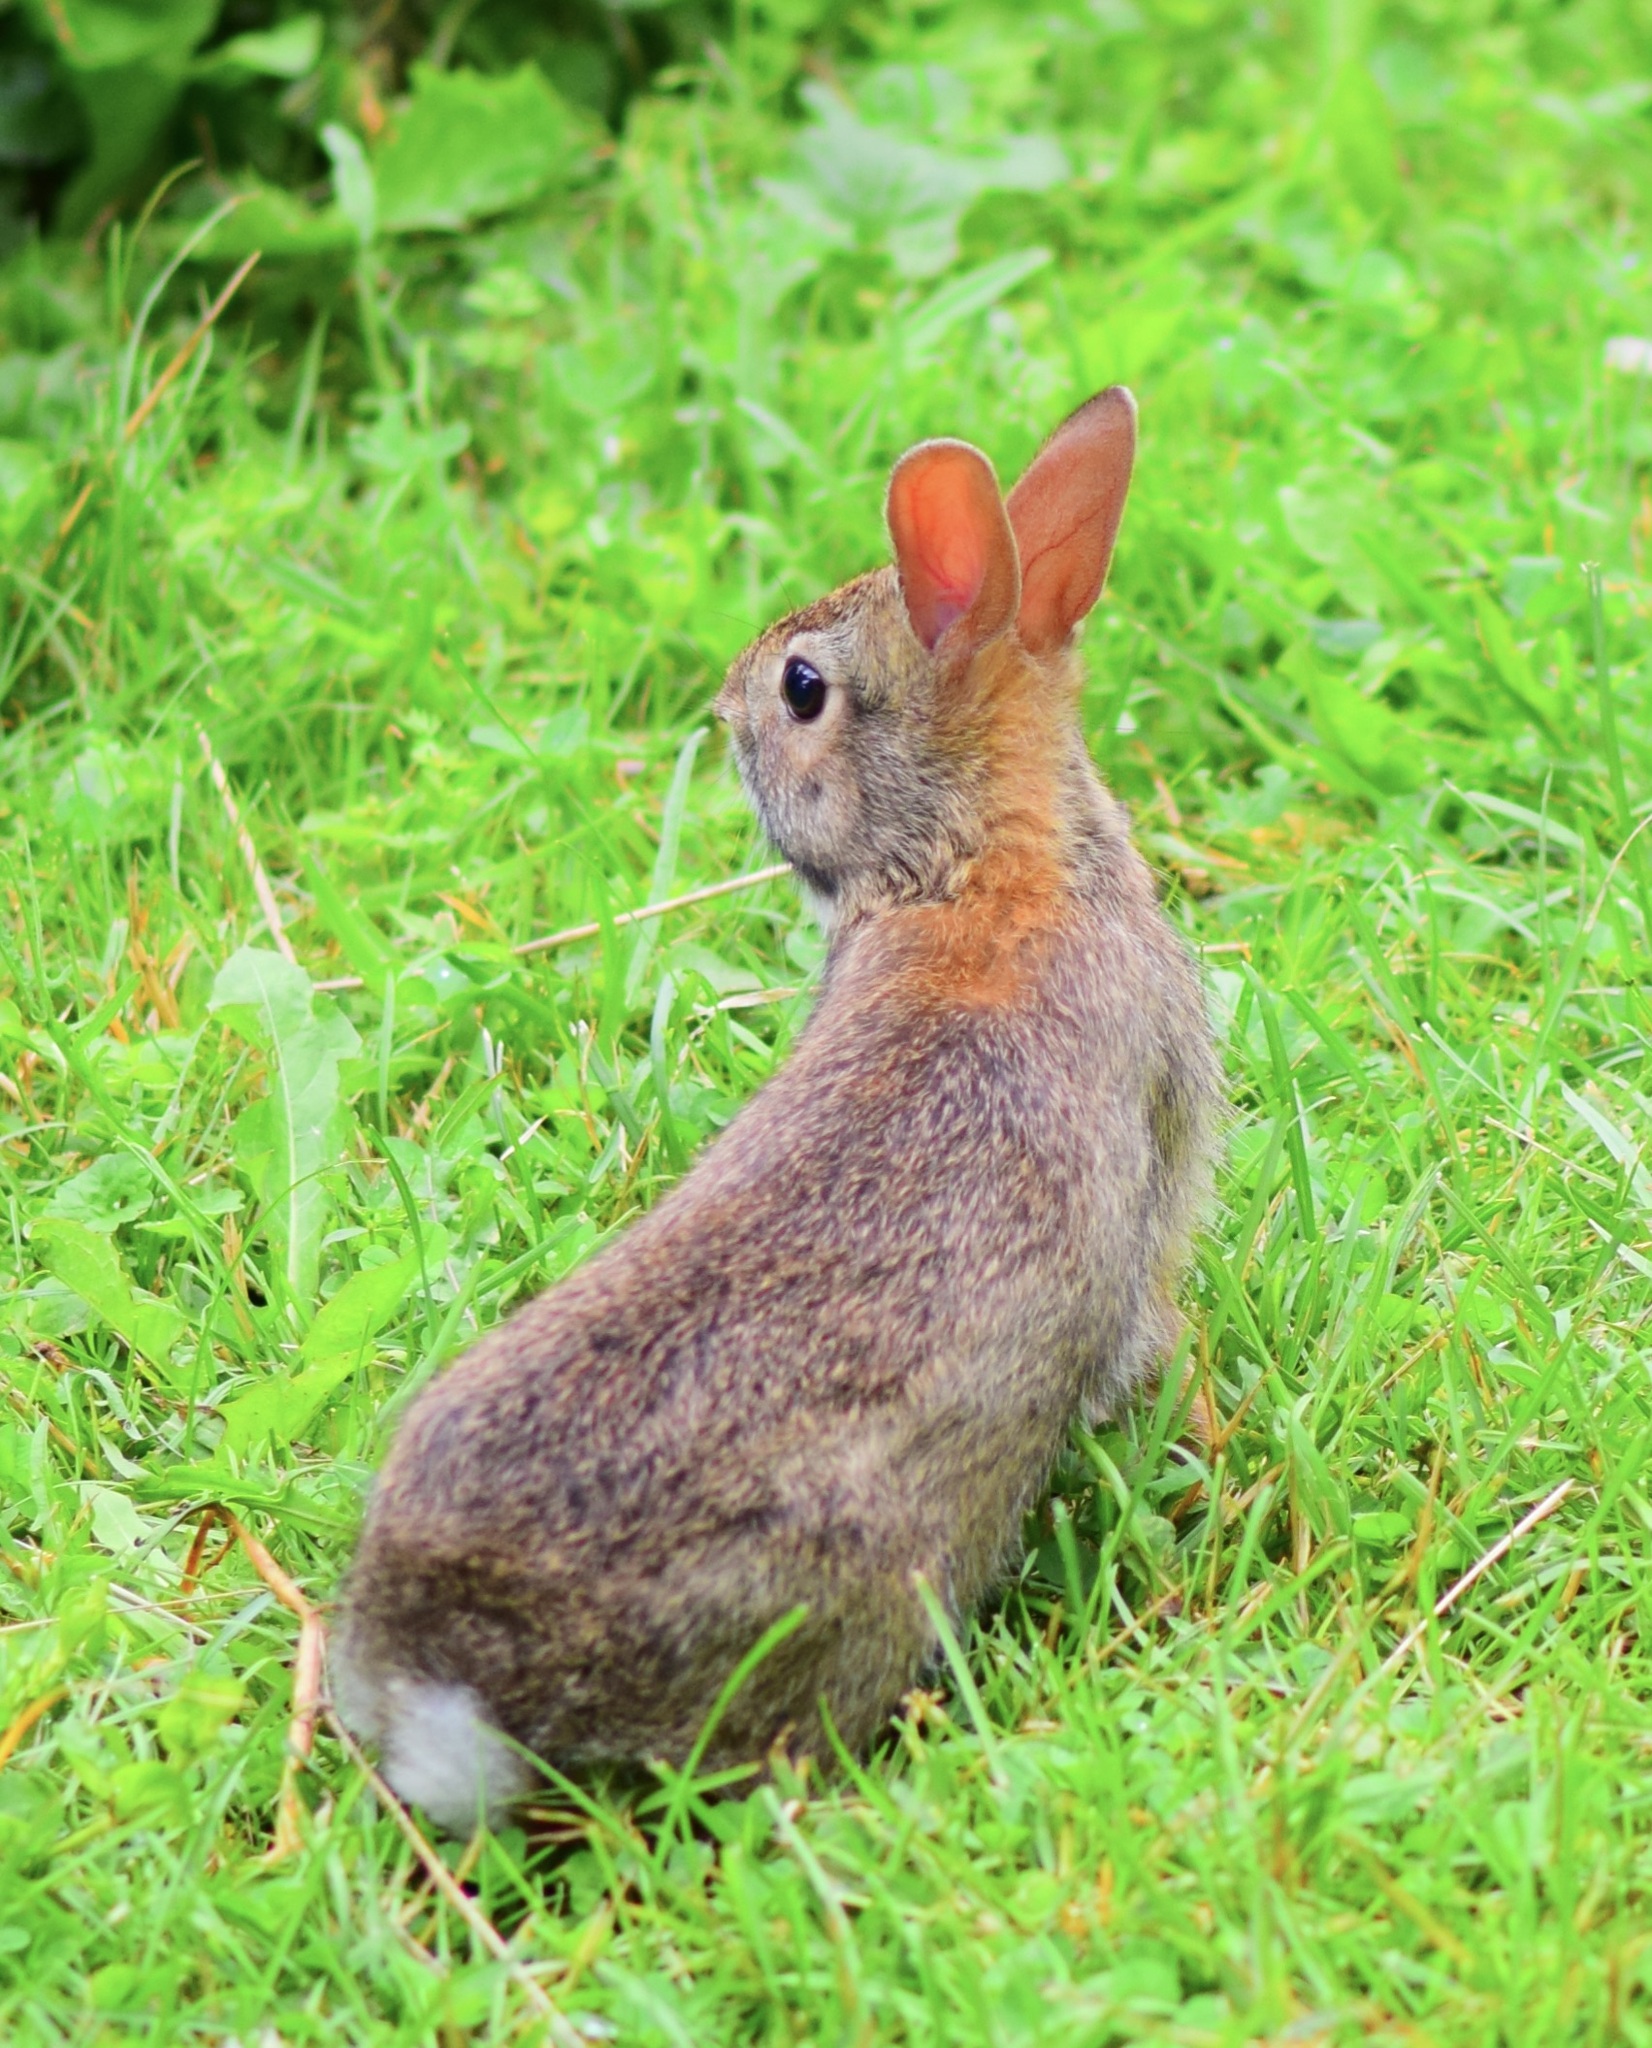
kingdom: Animalia
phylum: Chordata
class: Mammalia
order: Lagomorpha
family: Leporidae
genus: Sylvilagus
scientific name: Sylvilagus floridanus
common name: Eastern cottontail
